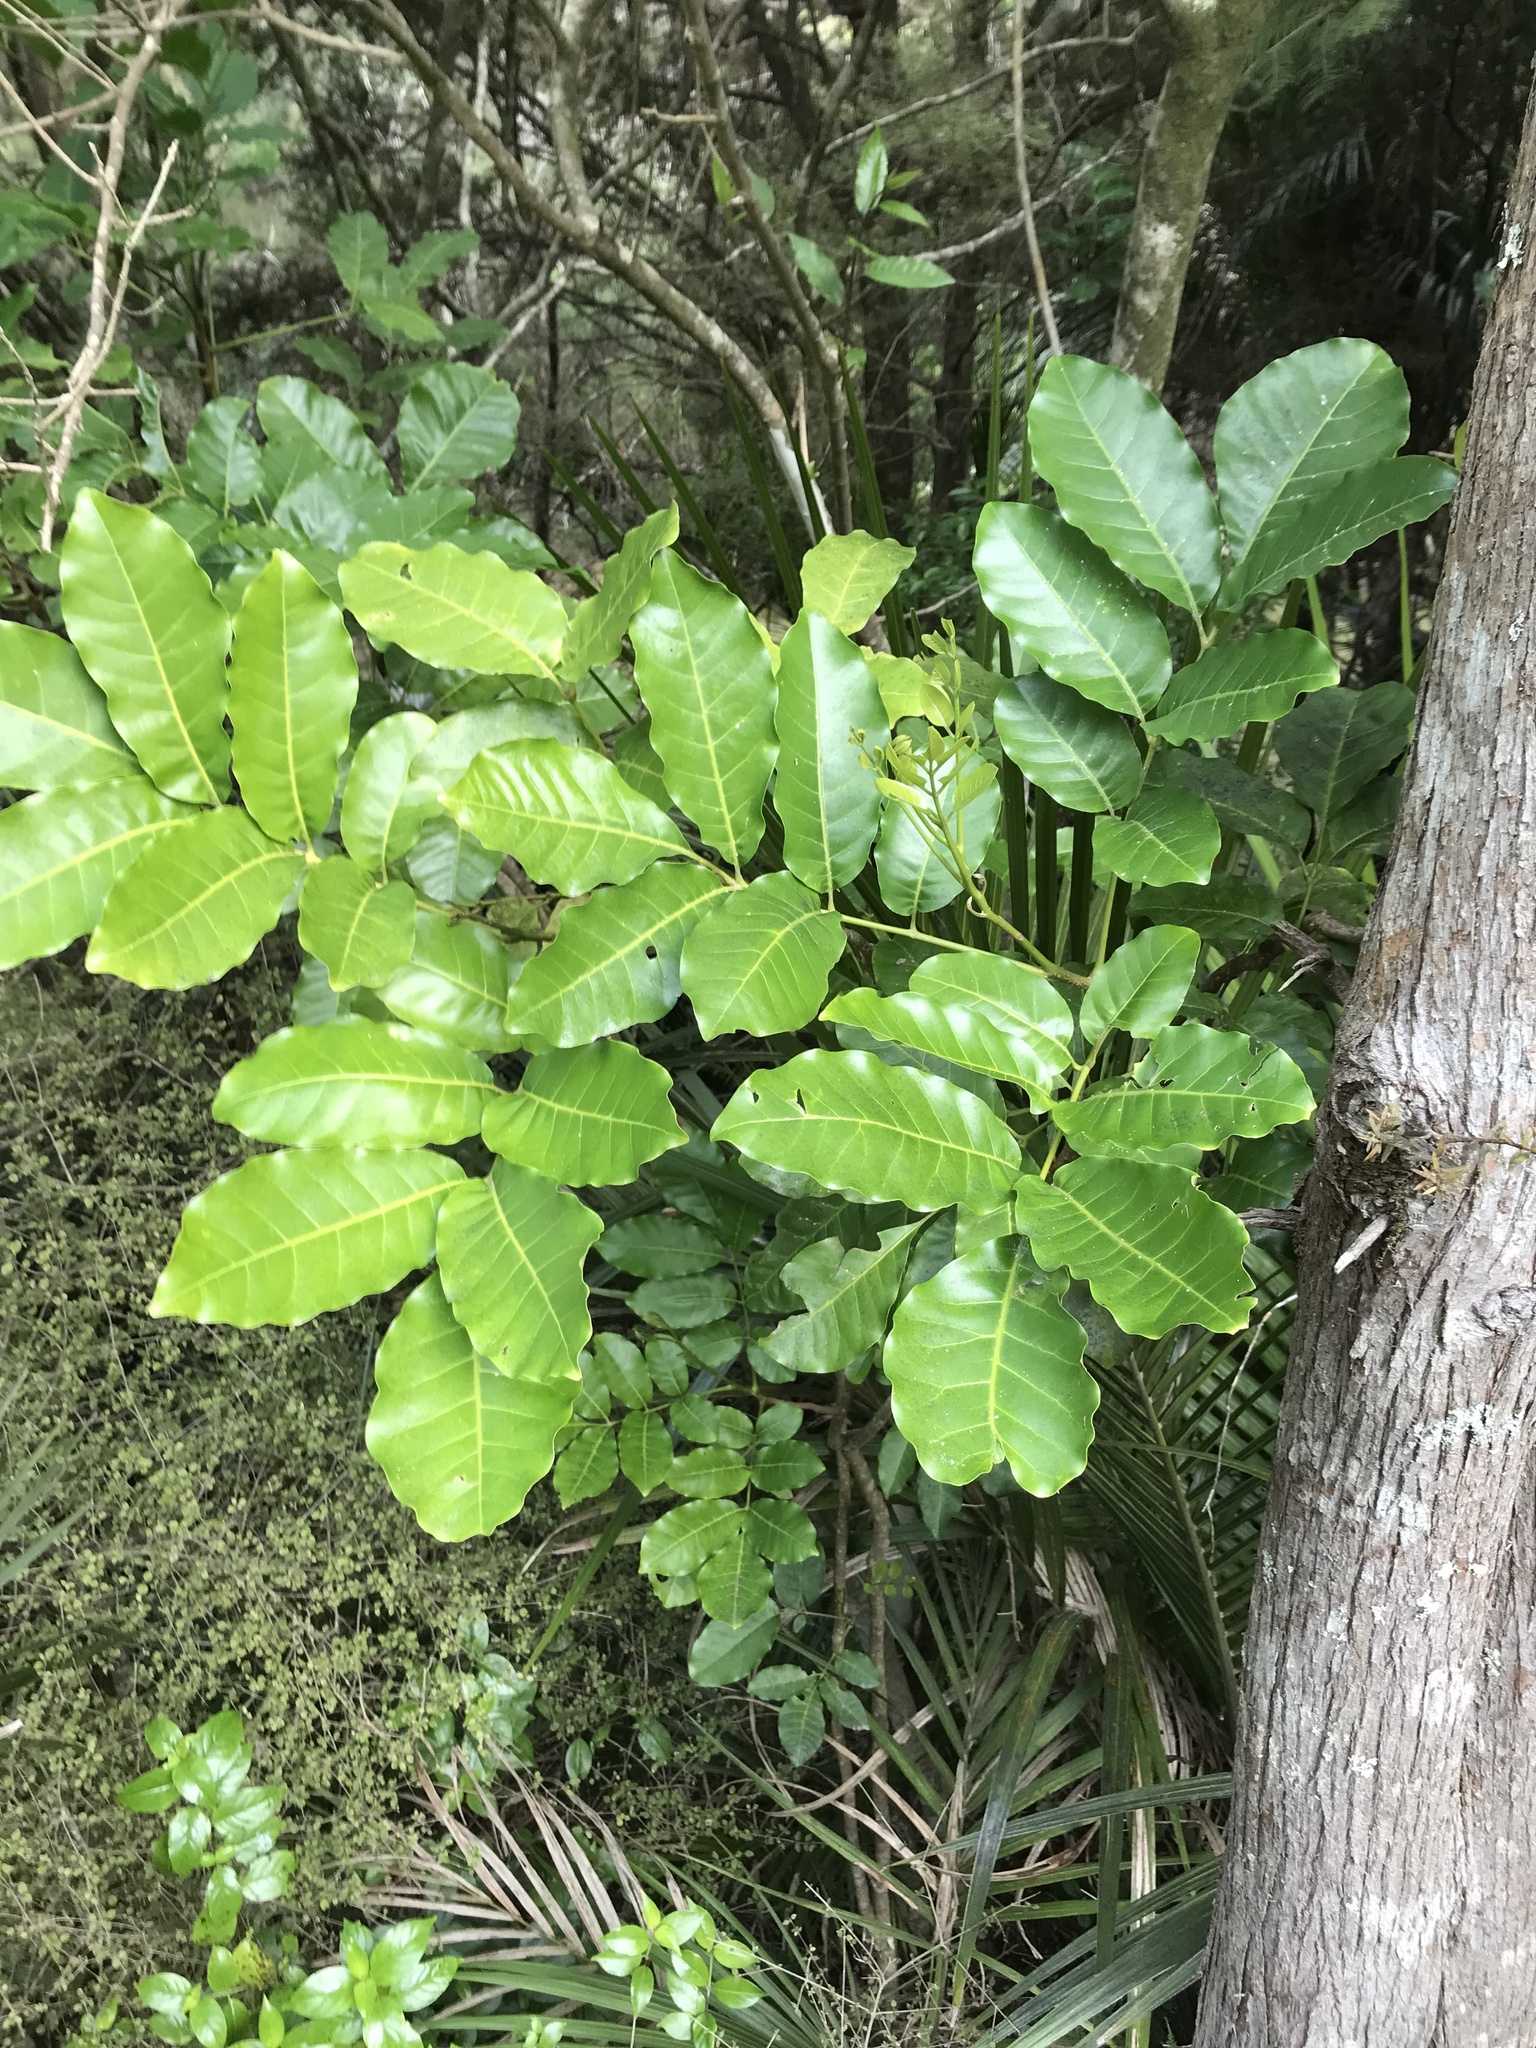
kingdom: Plantae
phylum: Tracheophyta
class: Magnoliopsida
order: Sapindales
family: Meliaceae
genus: Didymocheton
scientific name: Didymocheton spectabilis
